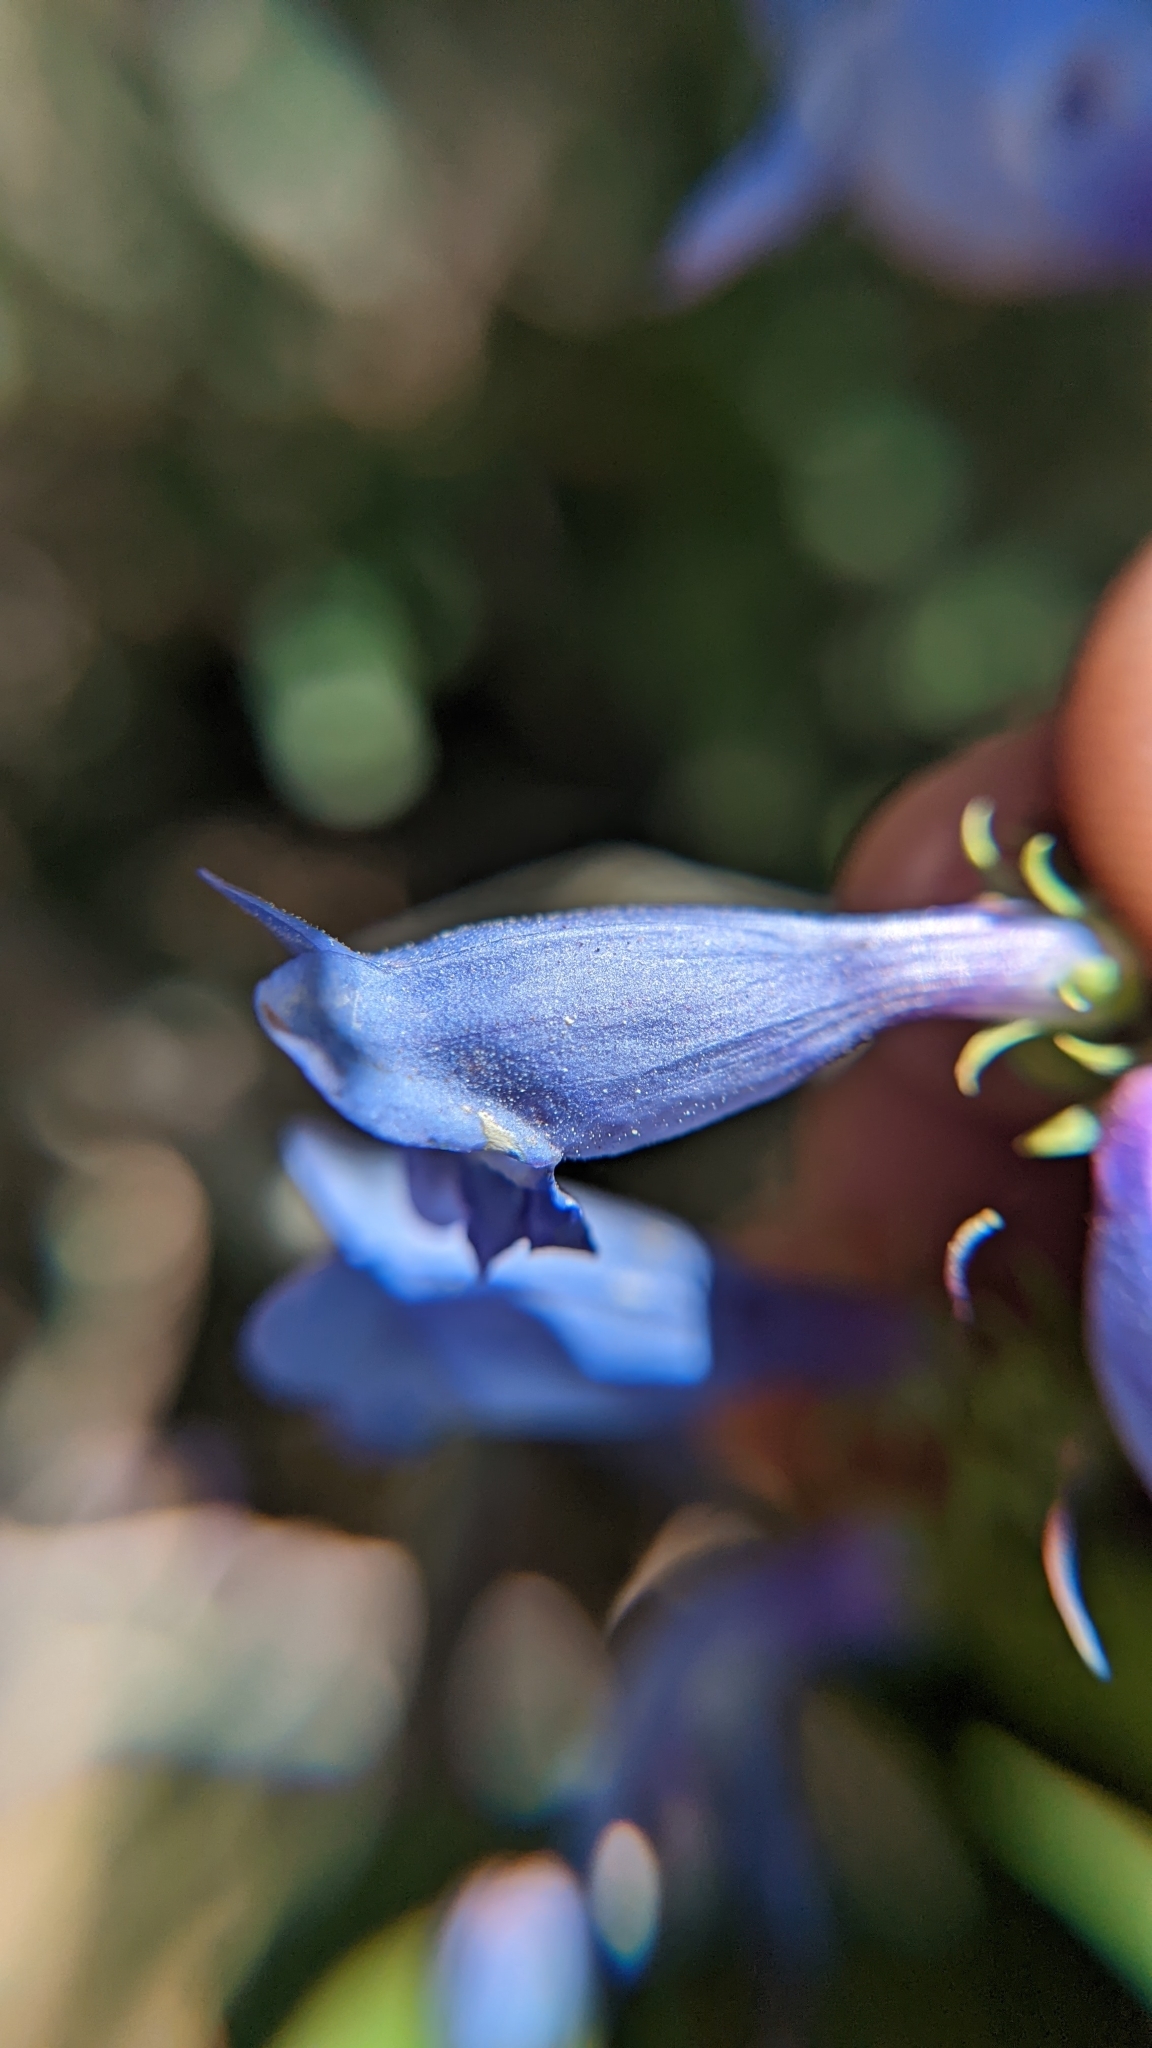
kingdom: Plantae
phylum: Tracheophyta
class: Magnoliopsida
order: Lamiales
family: Plantaginaceae
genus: Penstemon
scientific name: Penstemon leiophyllus
